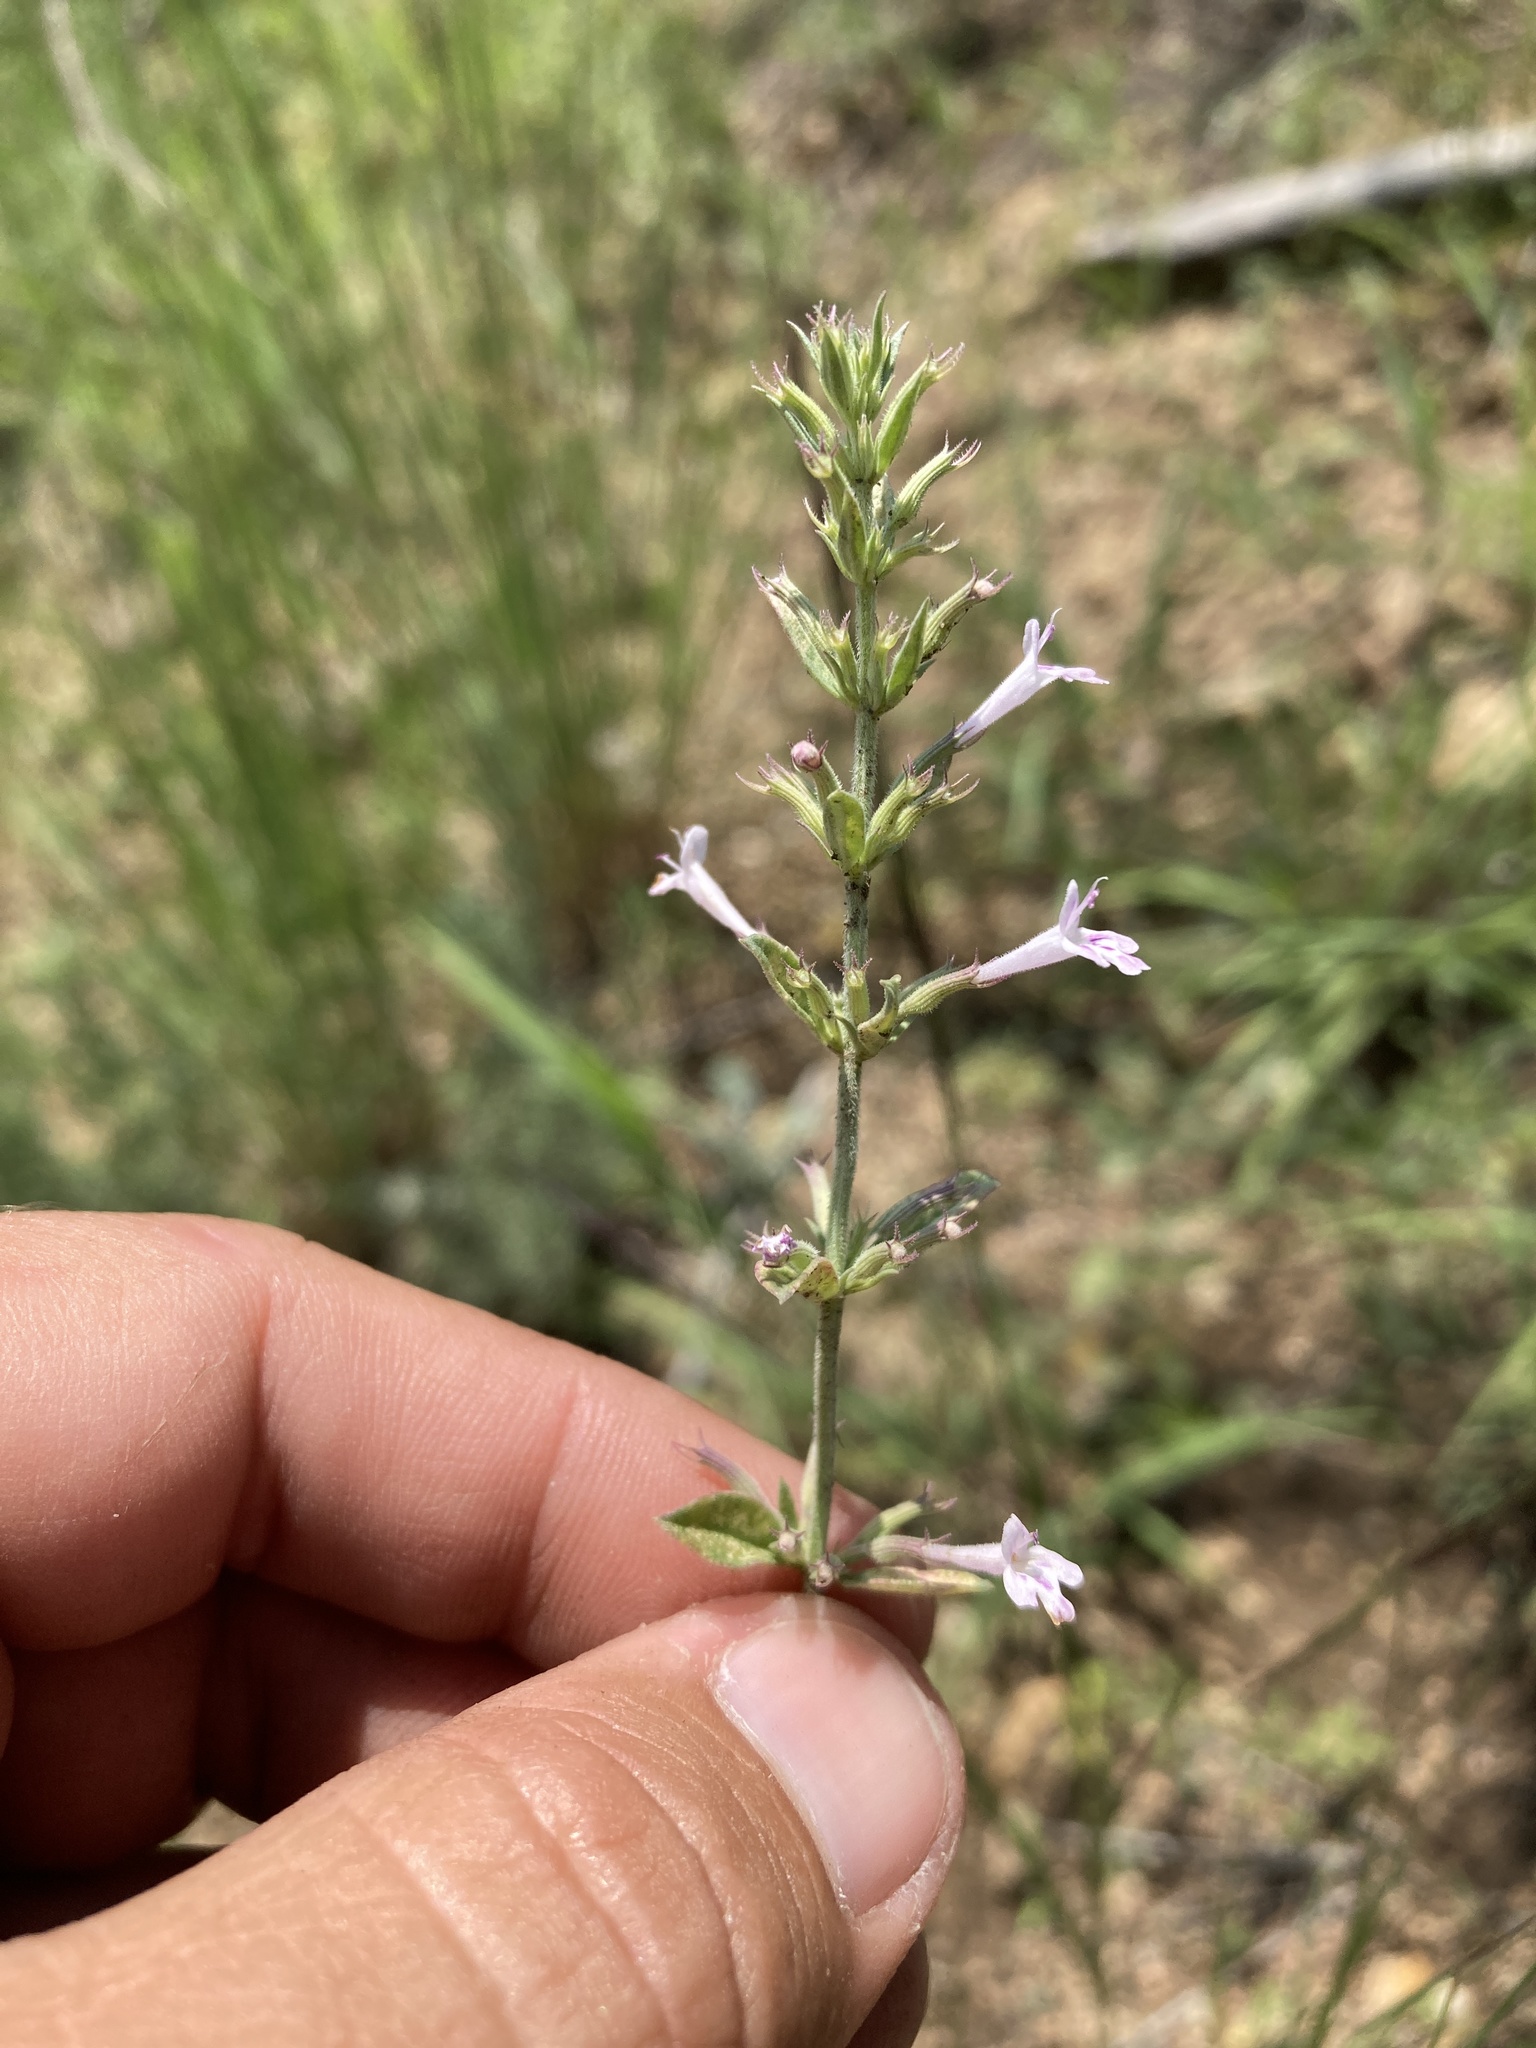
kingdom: Plantae
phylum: Tracheophyta
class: Magnoliopsida
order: Lamiales
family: Lamiaceae
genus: Hedeoma
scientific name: Hedeoma oblongifolia
